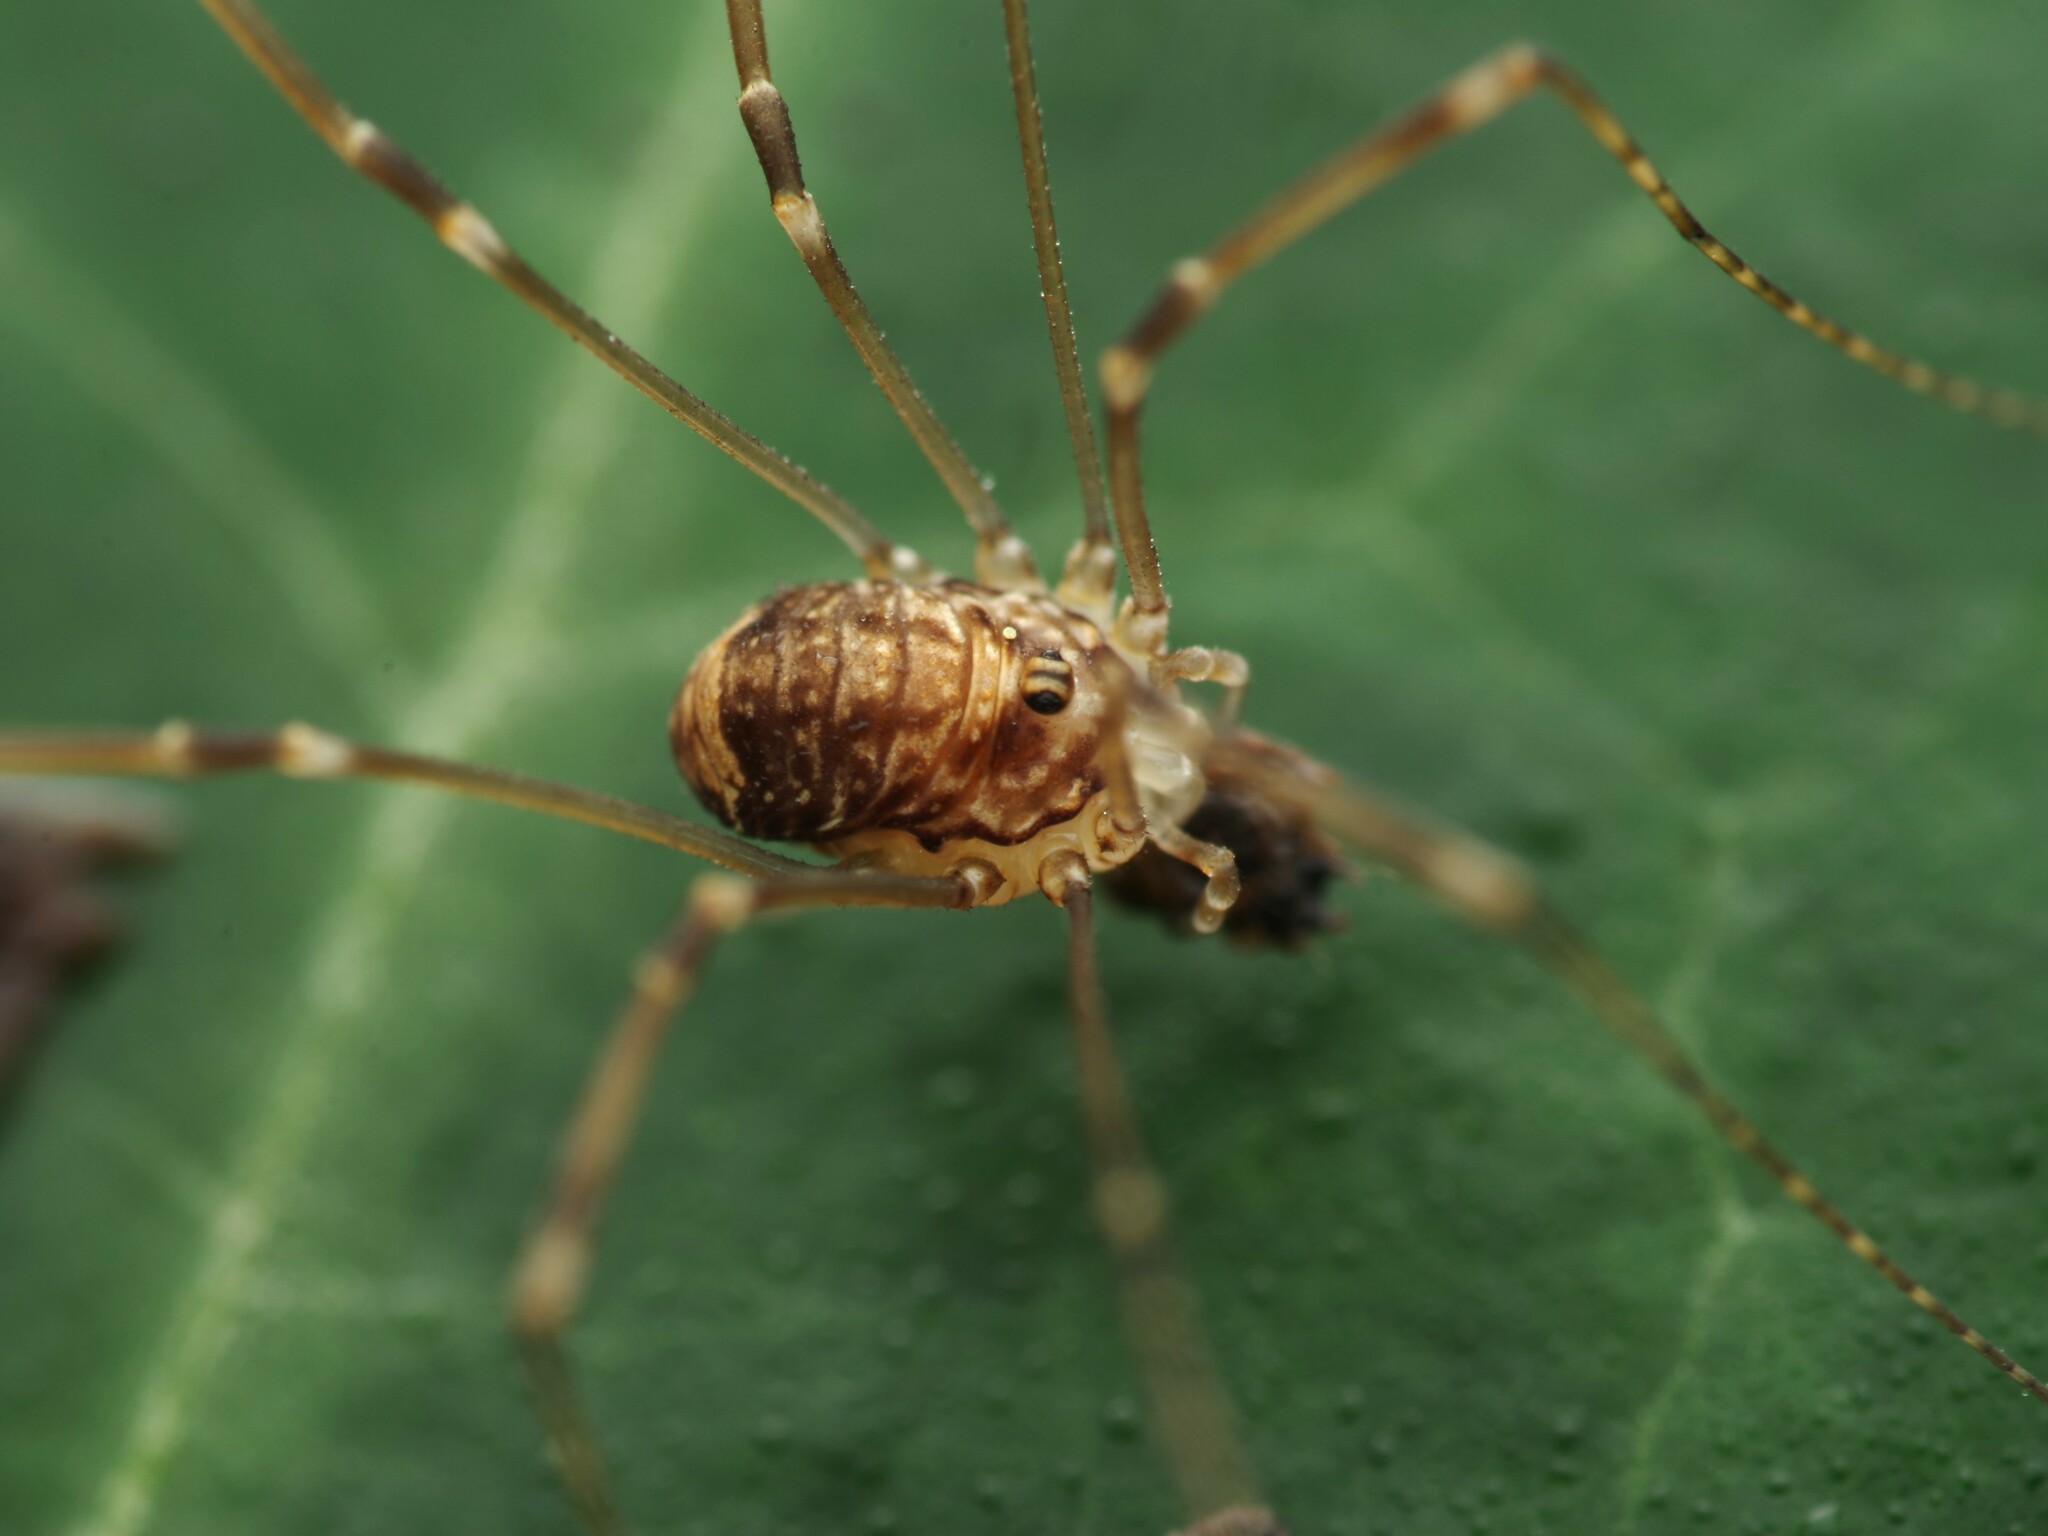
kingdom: Animalia
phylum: Arthropoda
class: Arachnida
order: Opiliones
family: Sclerosomatidae
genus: Leiobunum
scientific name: Leiobunum blackwalli
